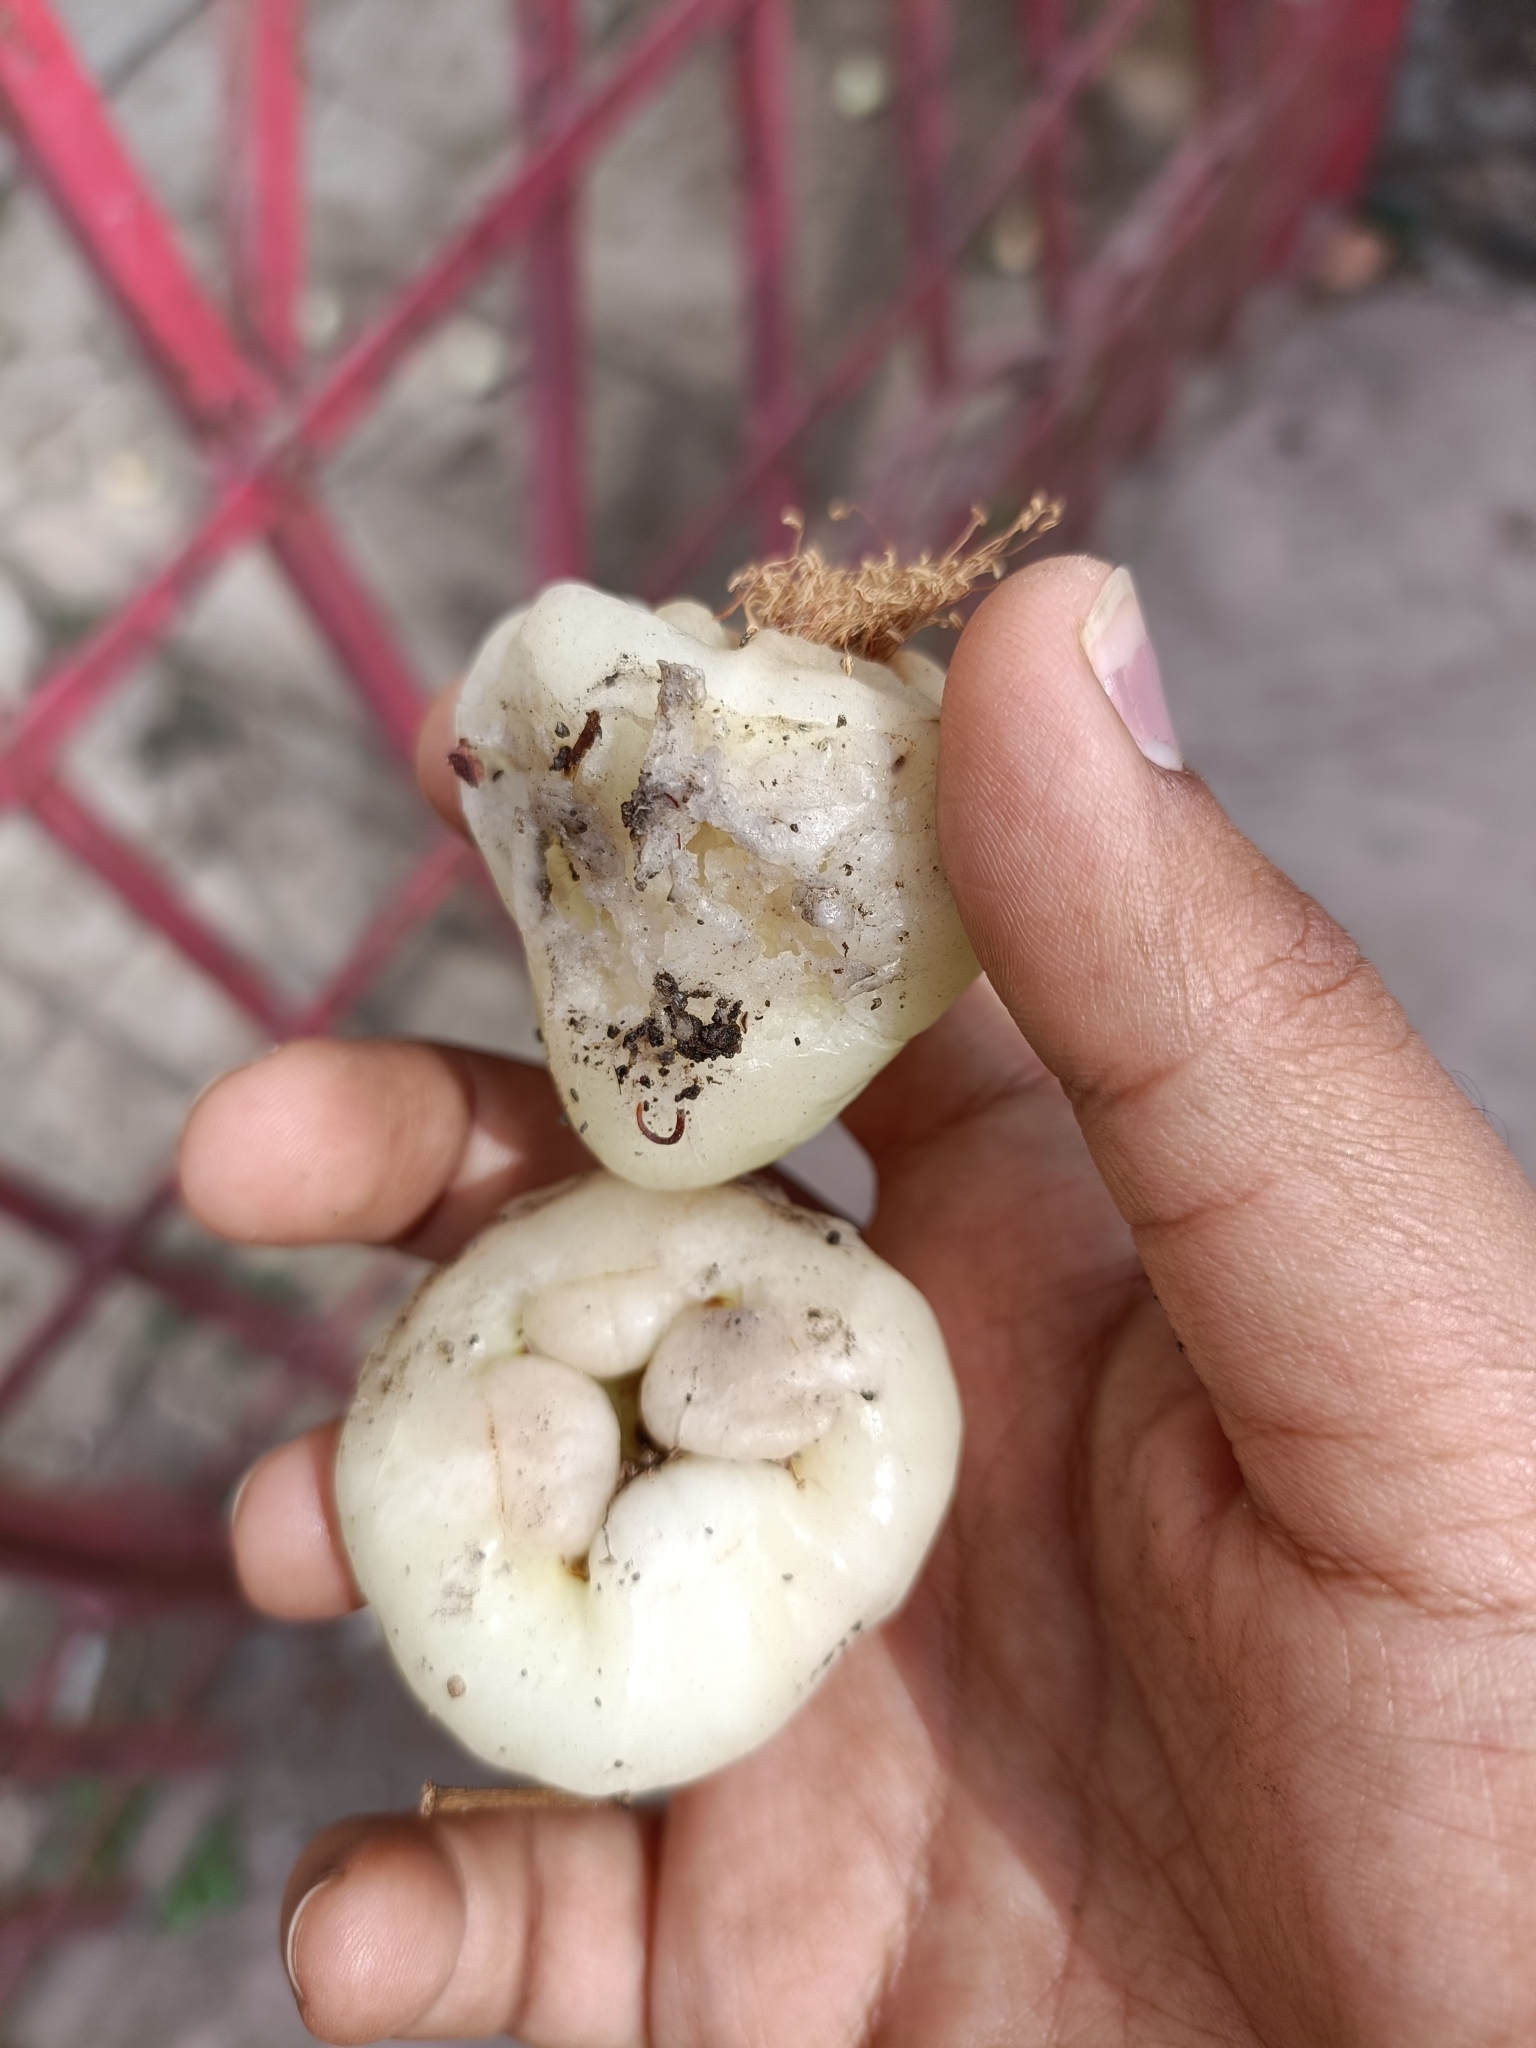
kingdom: Plantae
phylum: Tracheophyta
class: Magnoliopsida
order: Myrtales
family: Myrtaceae
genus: Syzygium
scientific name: Syzygium samarangense
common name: Semarang rose-apple
